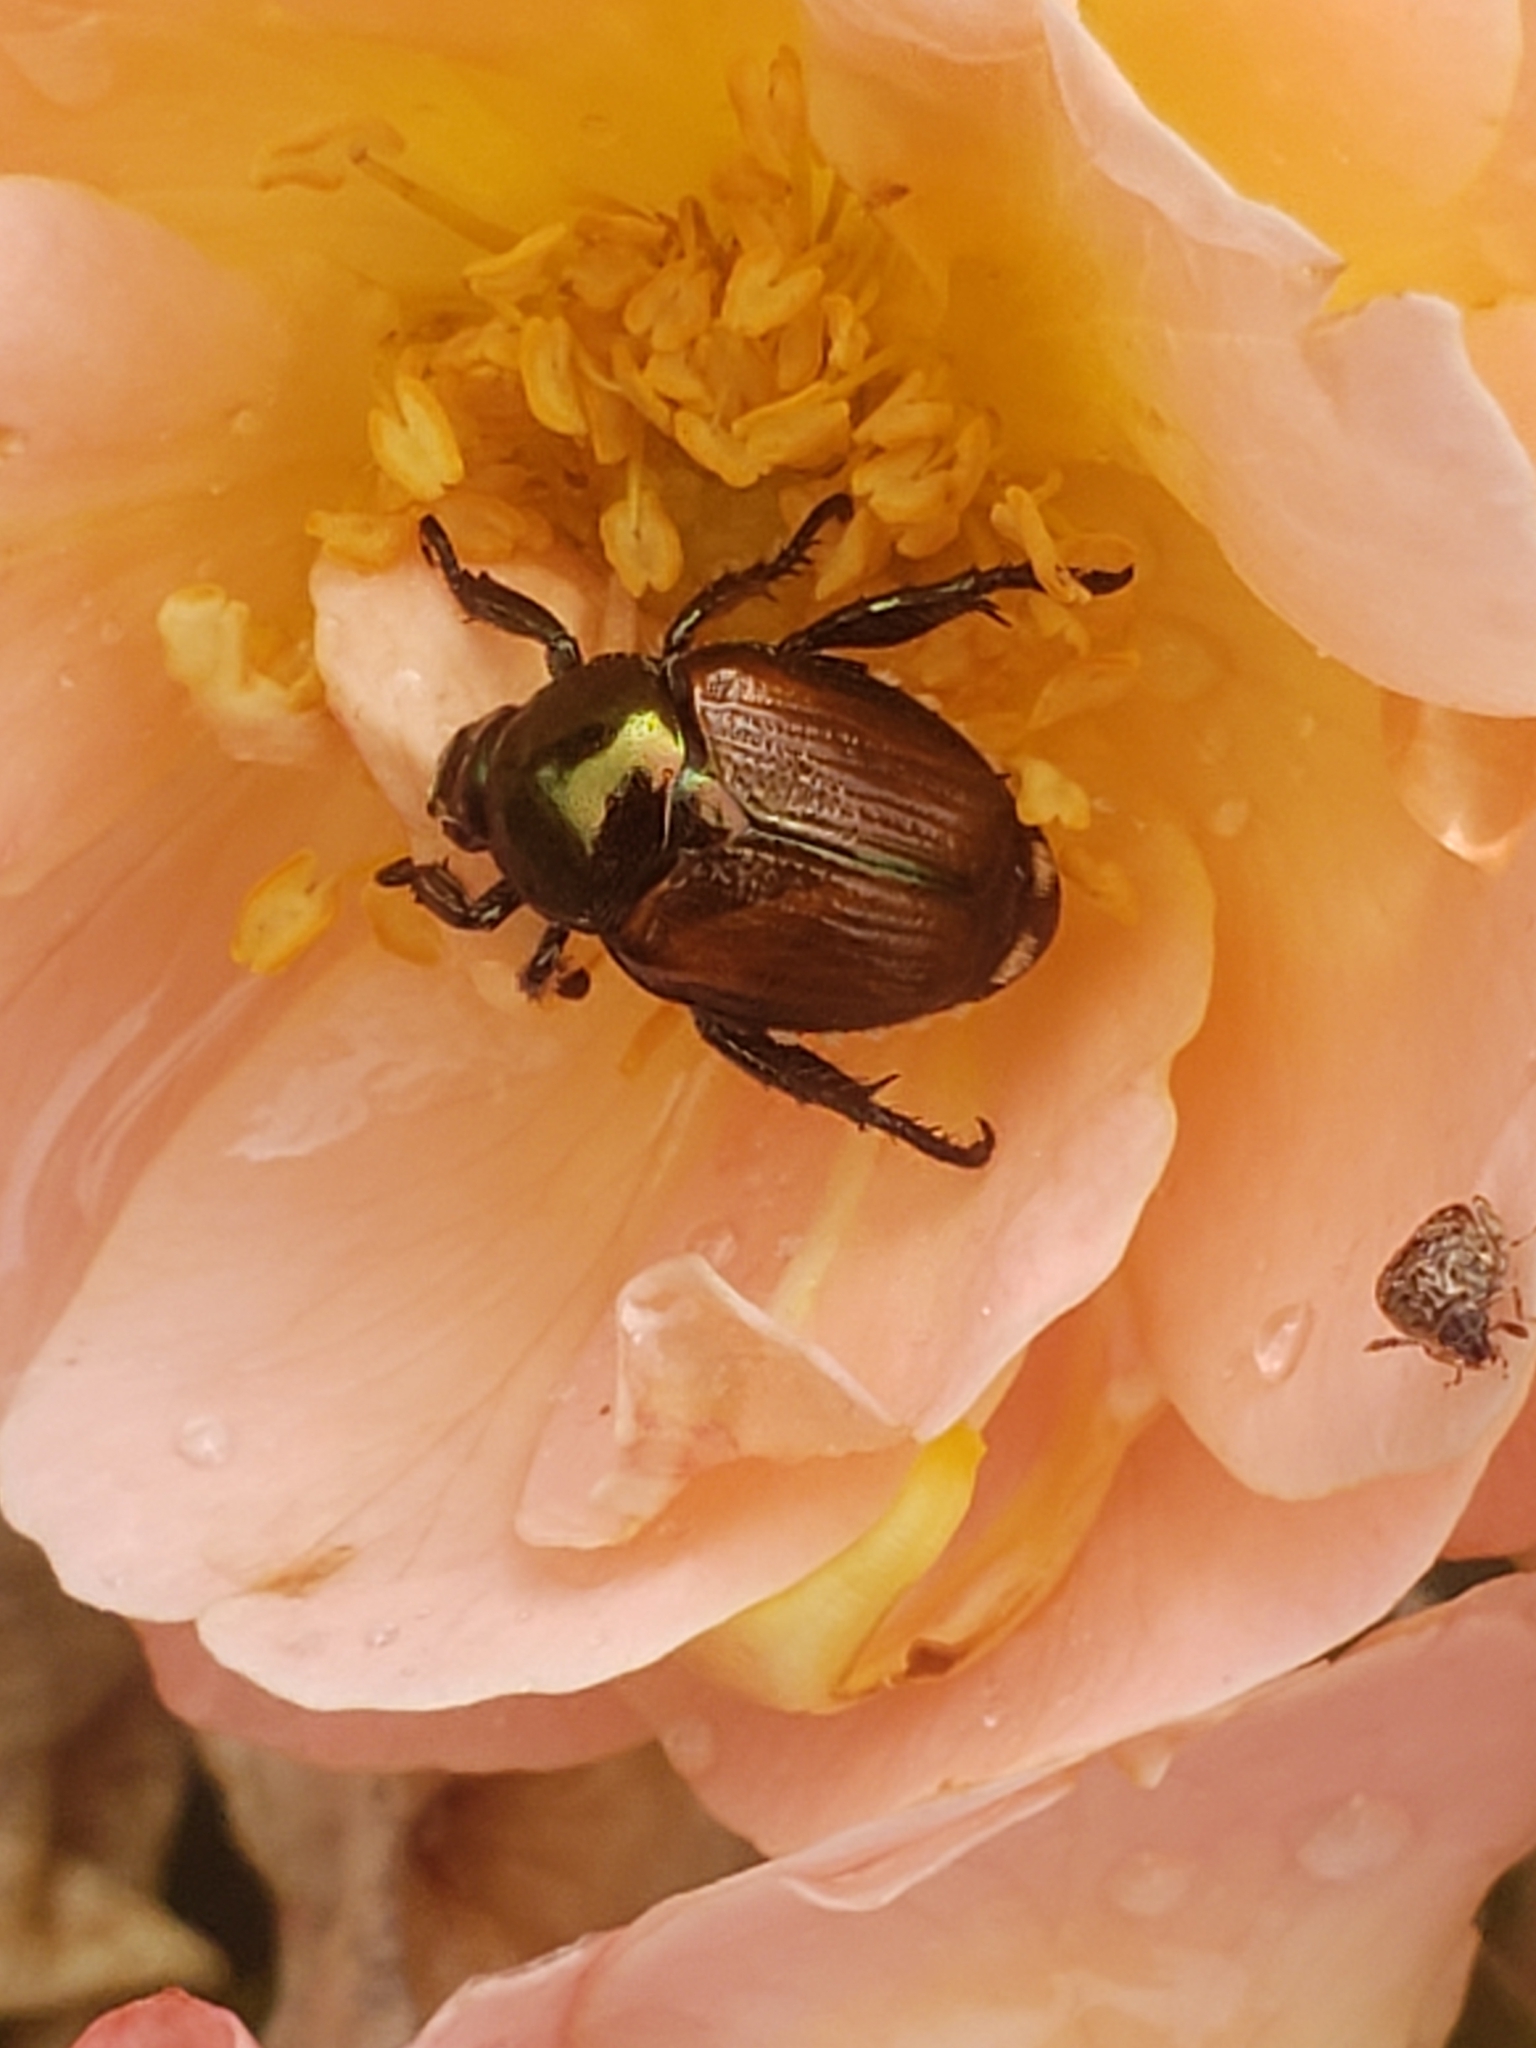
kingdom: Animalia
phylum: Arthropoda
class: Insecta
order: Coleoptera
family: Scarabaeidae
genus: Popillia
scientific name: Popillia japonica
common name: Japanese beetle
